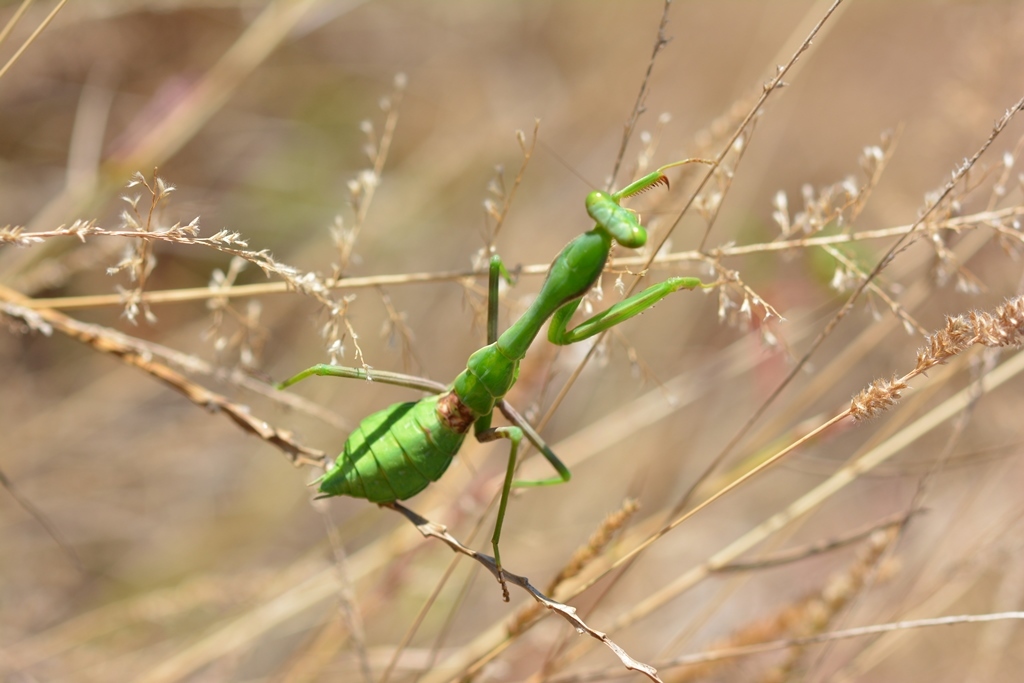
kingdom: Animalia
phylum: Arthropoda
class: Insecta
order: Mantodea
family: Mantidae
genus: Stagmomantis
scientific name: Stagmomantis limbata
